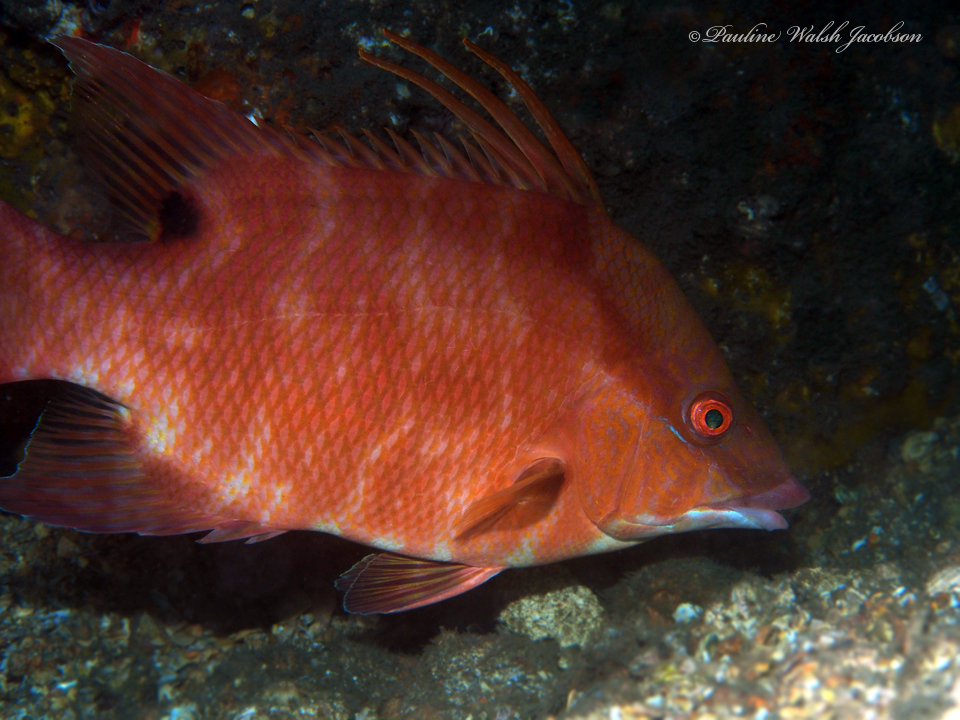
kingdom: Animalia
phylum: Chordata
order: Perciformes
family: Labridae
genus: Lachnolaimus
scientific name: Lachnolaimus maximus
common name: Hogfish
